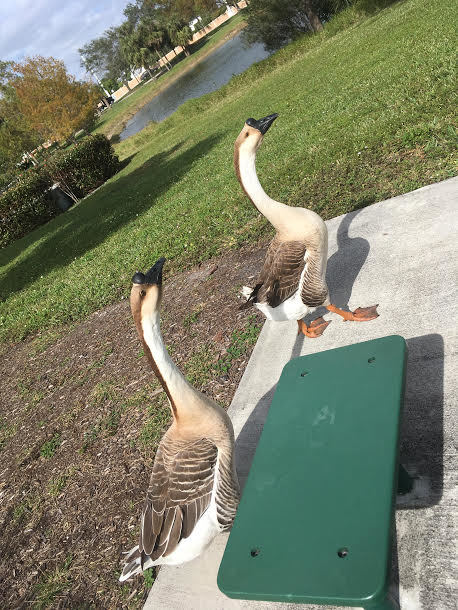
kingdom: Animalia
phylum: Chordata
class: Aves
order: Anseriformes
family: Anatidae
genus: Anser
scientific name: Anser cygnoides
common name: Swan goose
